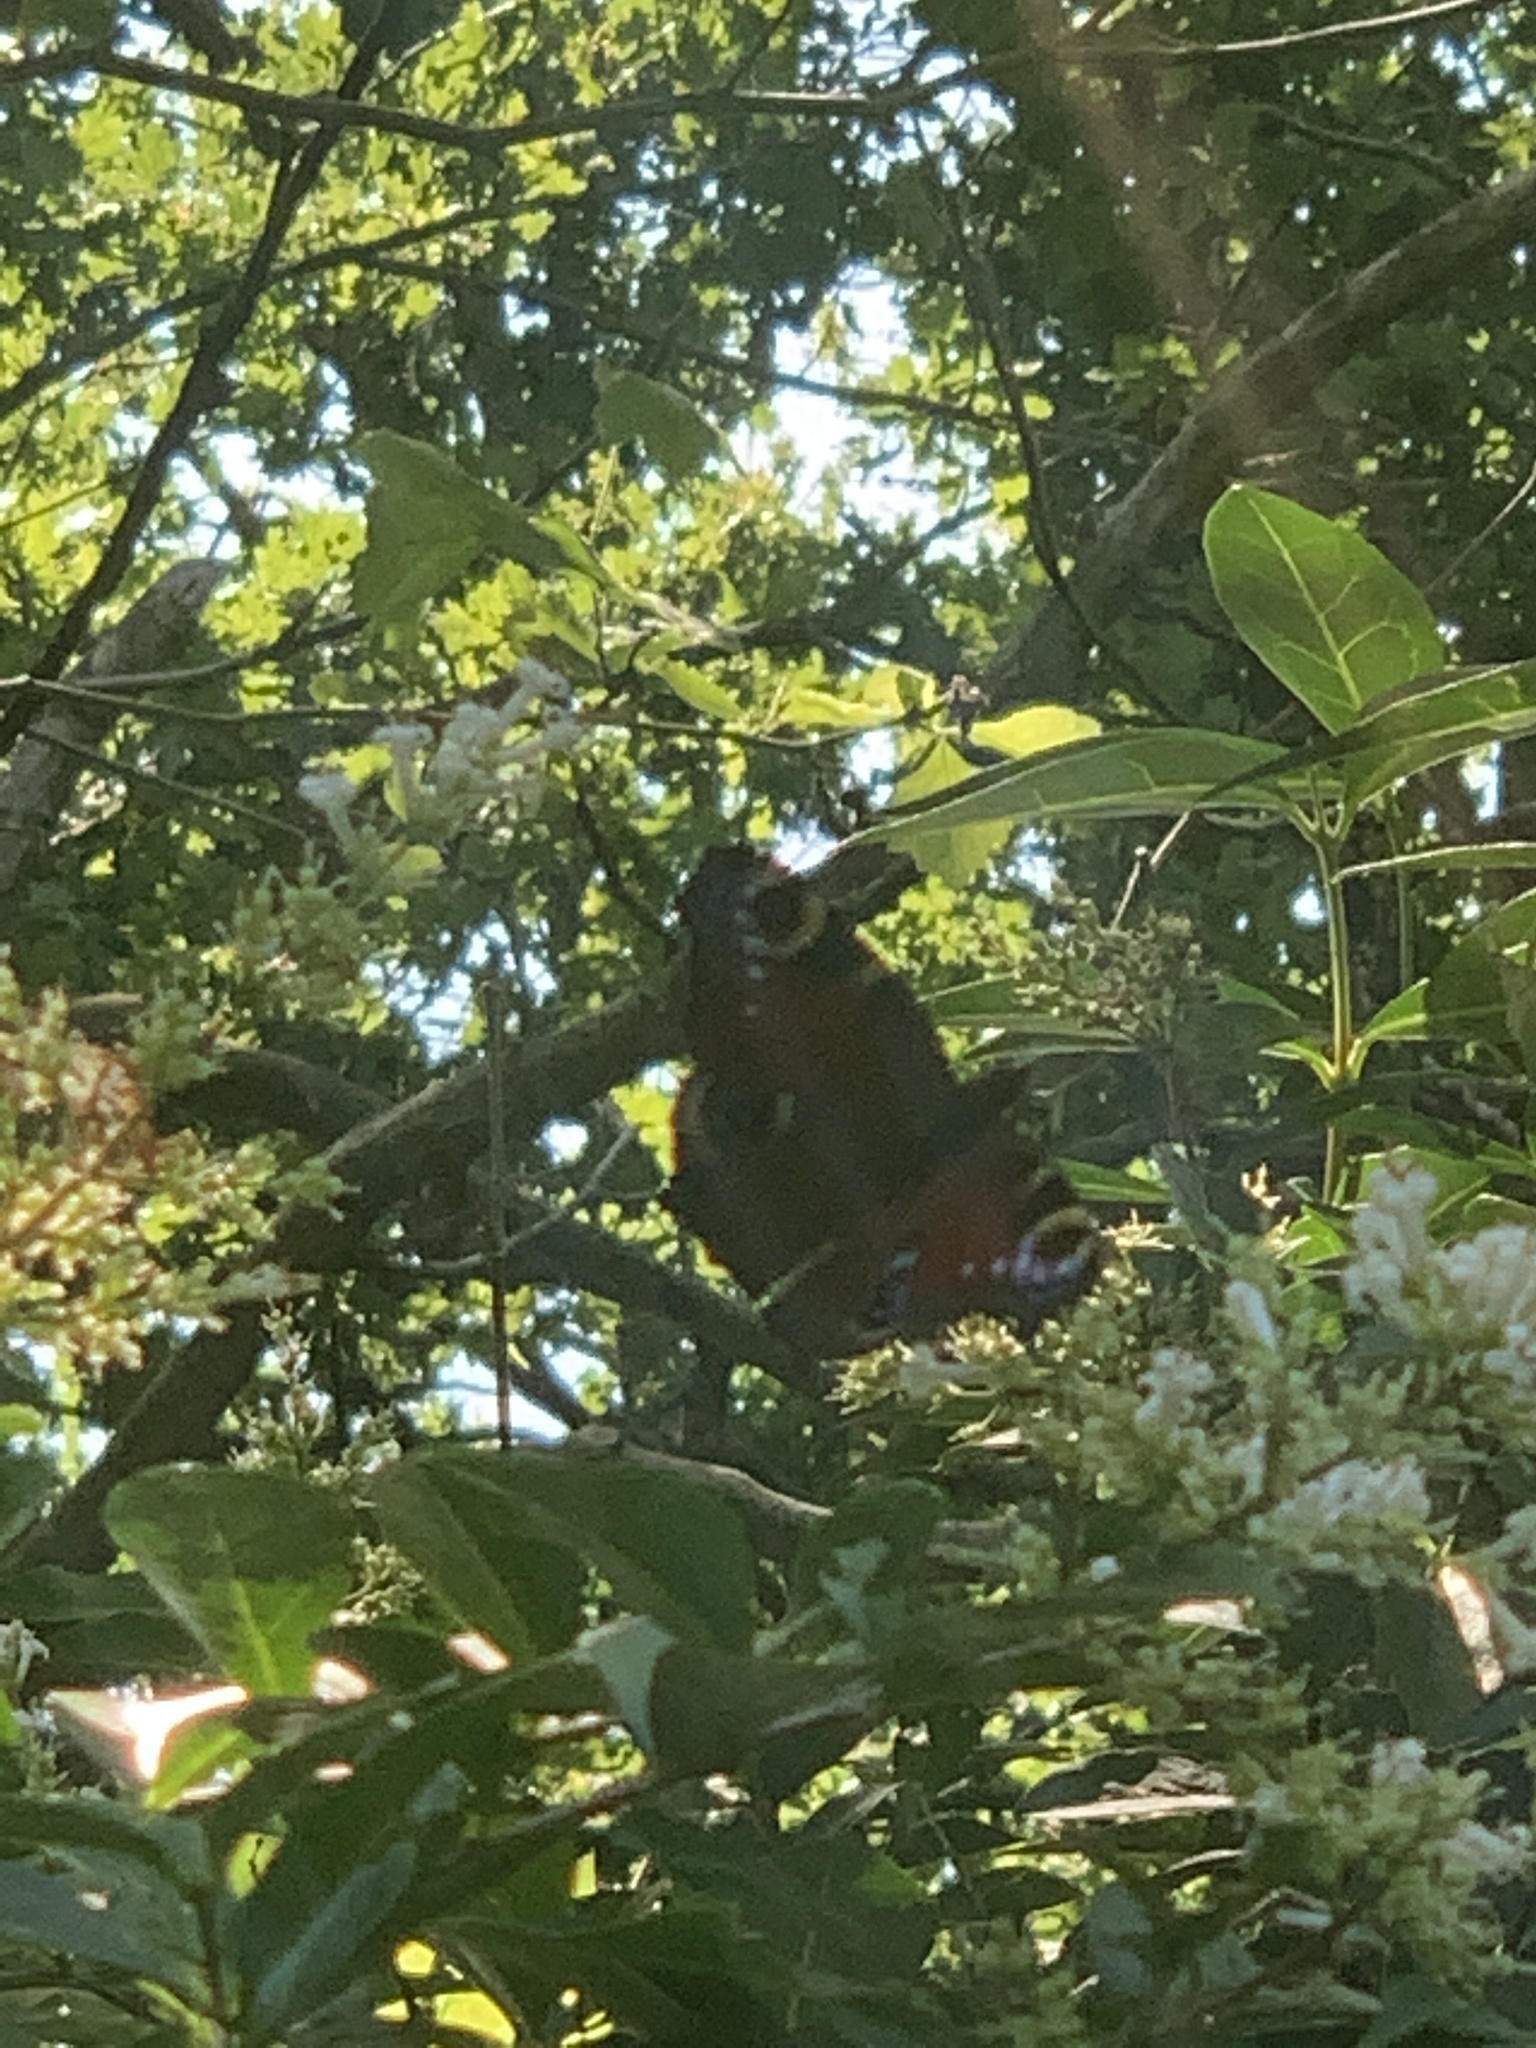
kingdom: Animalia
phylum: Arthropoda
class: Insecta
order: Lepidoptera
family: Nymphalidae
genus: Aglais
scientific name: Aglais io
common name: Peacock
